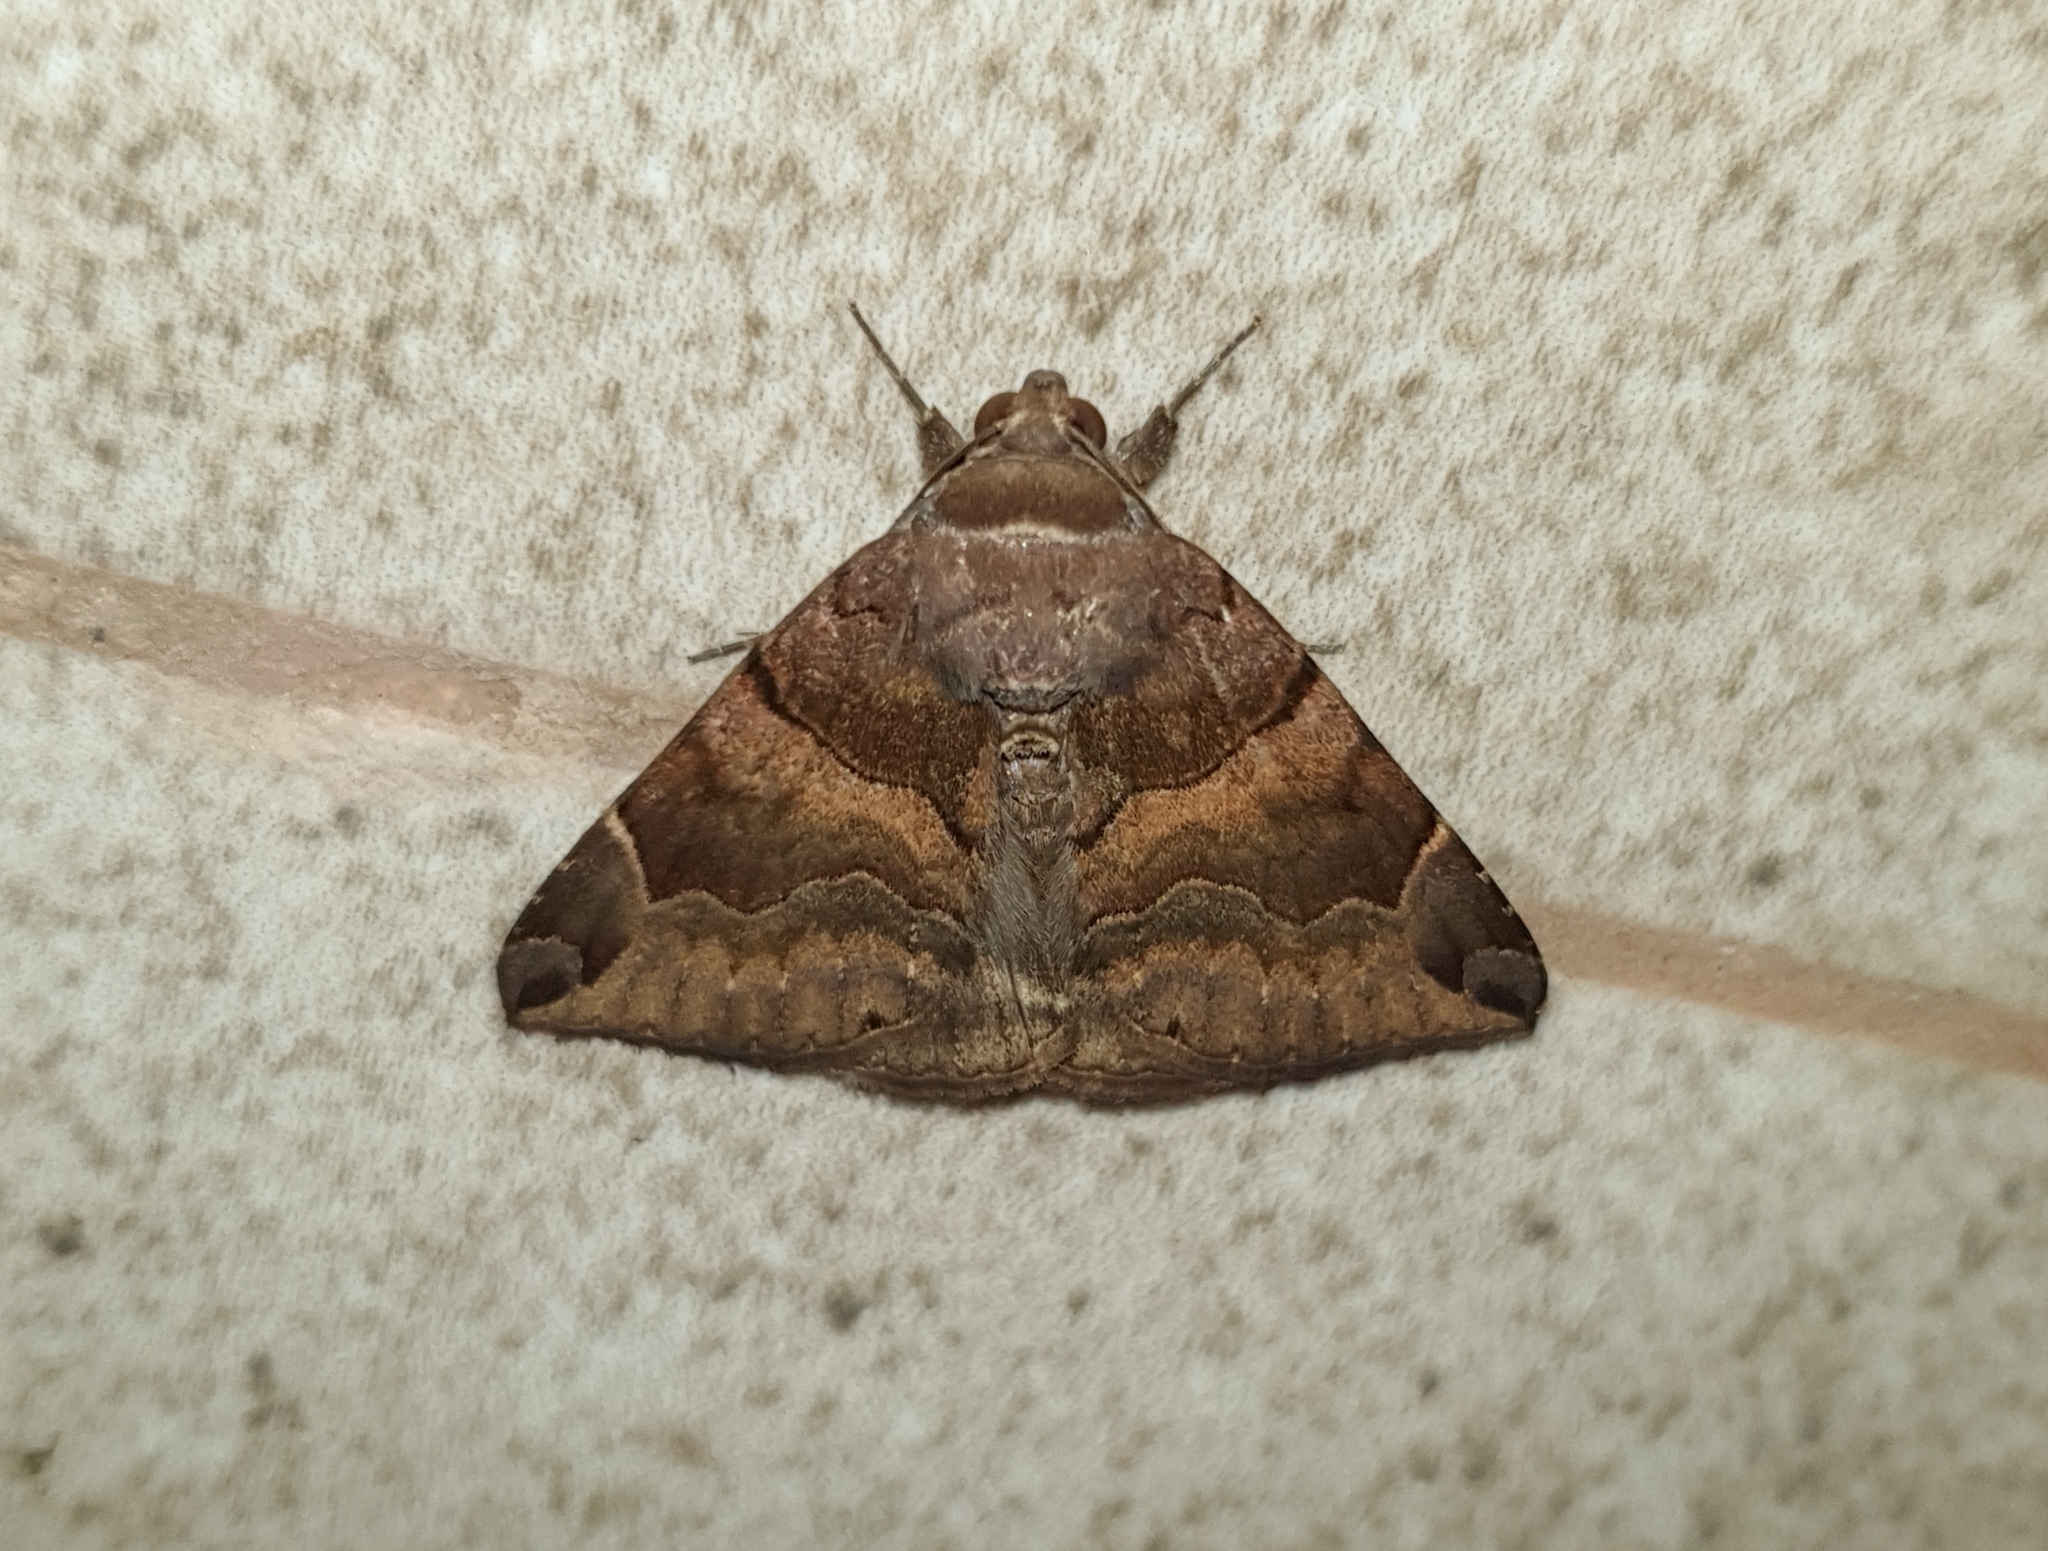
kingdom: Animalia
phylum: Arthropoda
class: Insecta
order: Lepidoptera
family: Erebidae
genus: Dysgonia
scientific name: Dysgonia simillima
